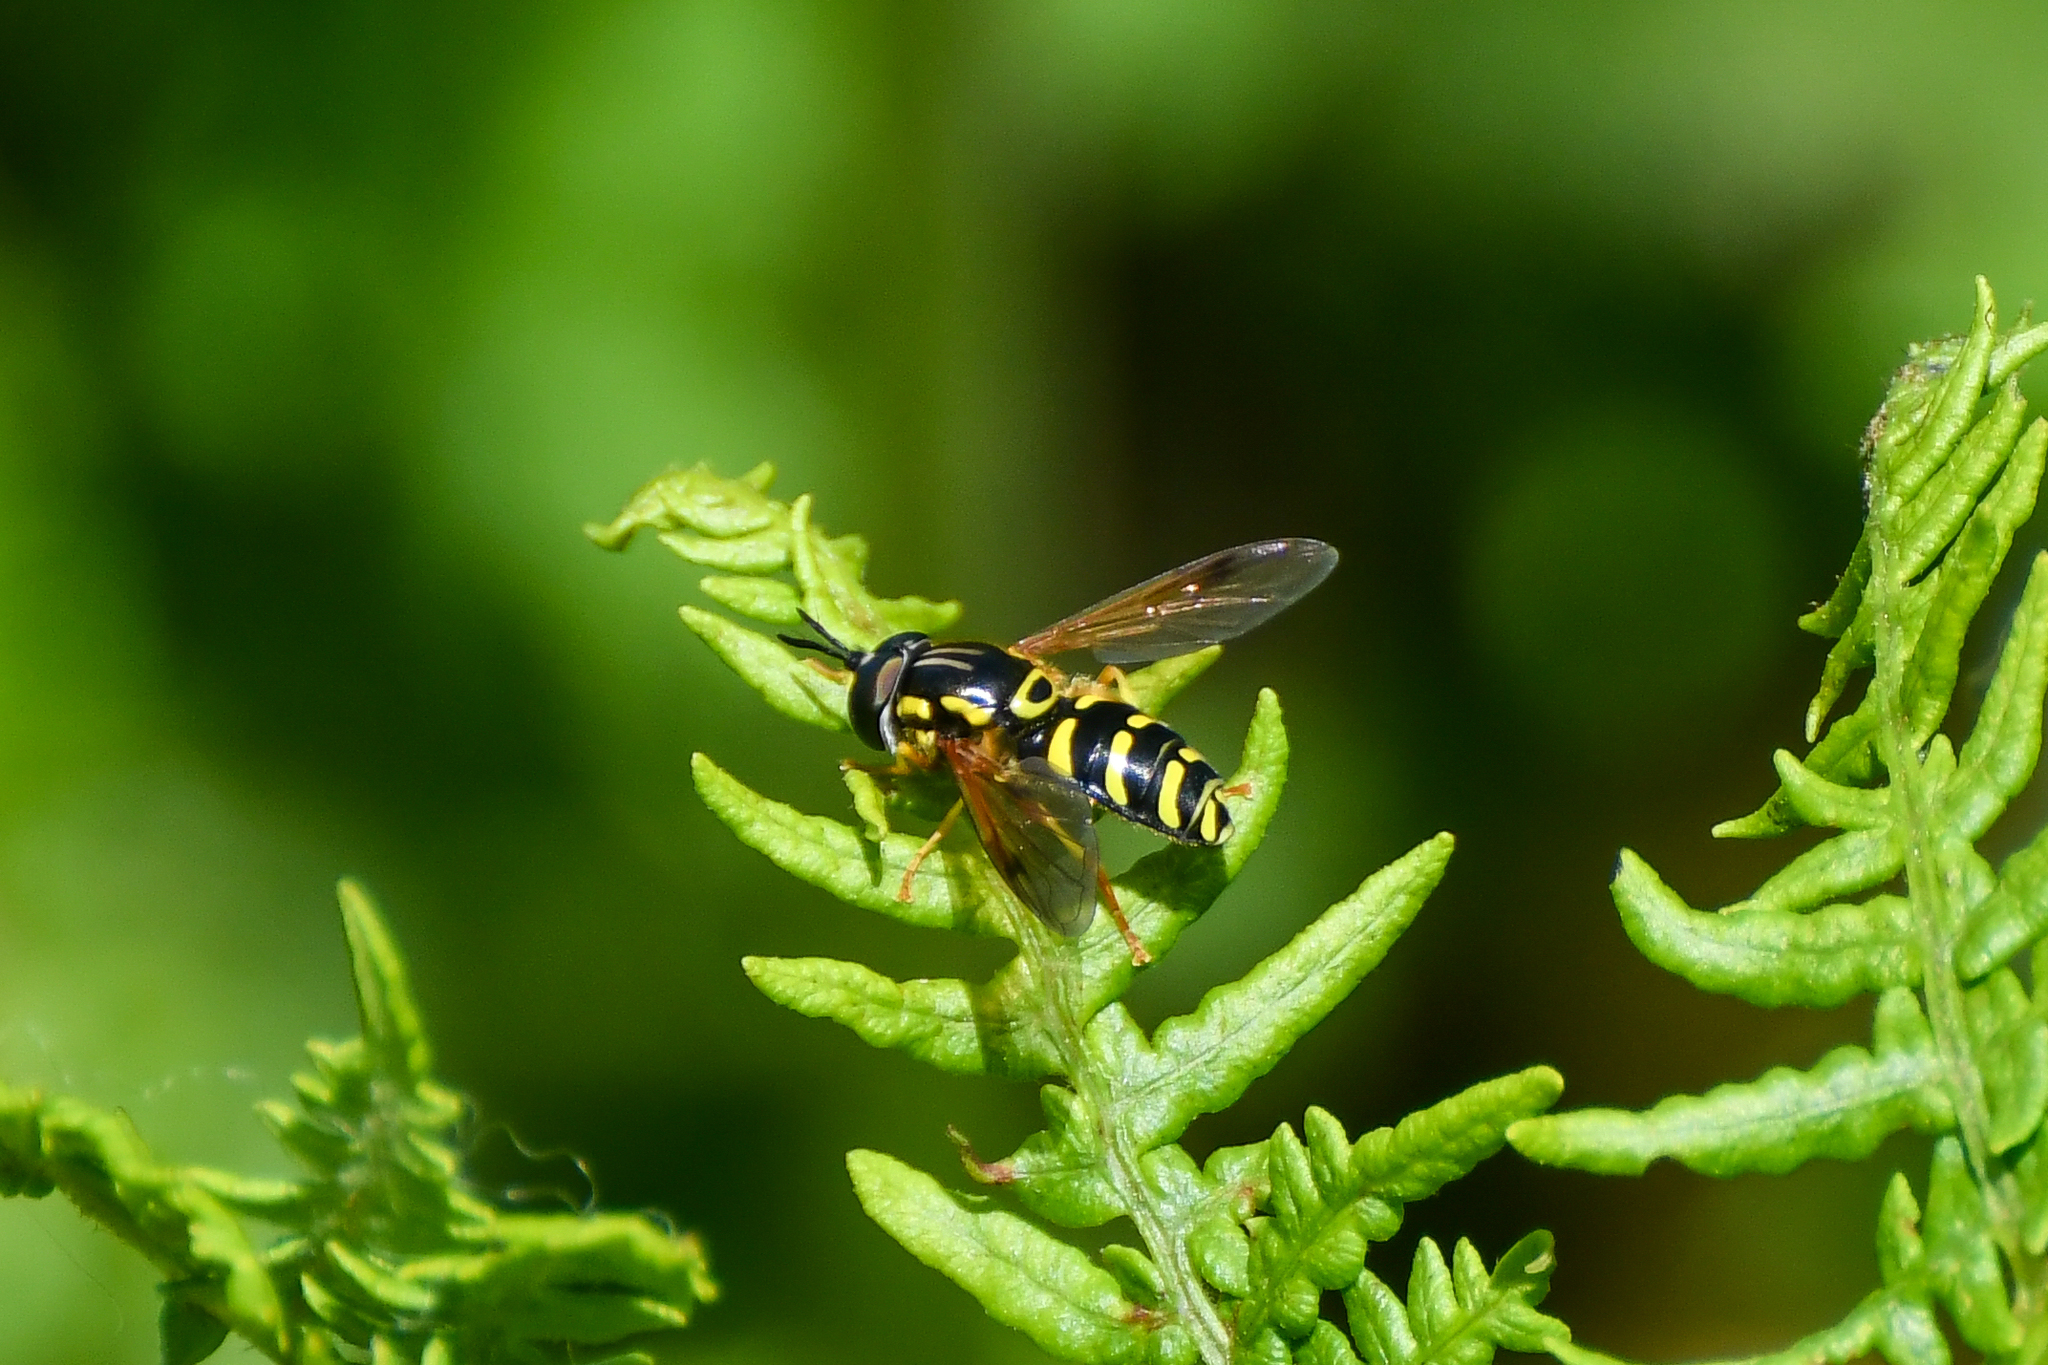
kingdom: Animalia
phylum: Arthropoda
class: Insecta
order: Diptera
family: Syrphidae
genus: Chrysotoxum
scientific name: Chrysotoxum festivum
